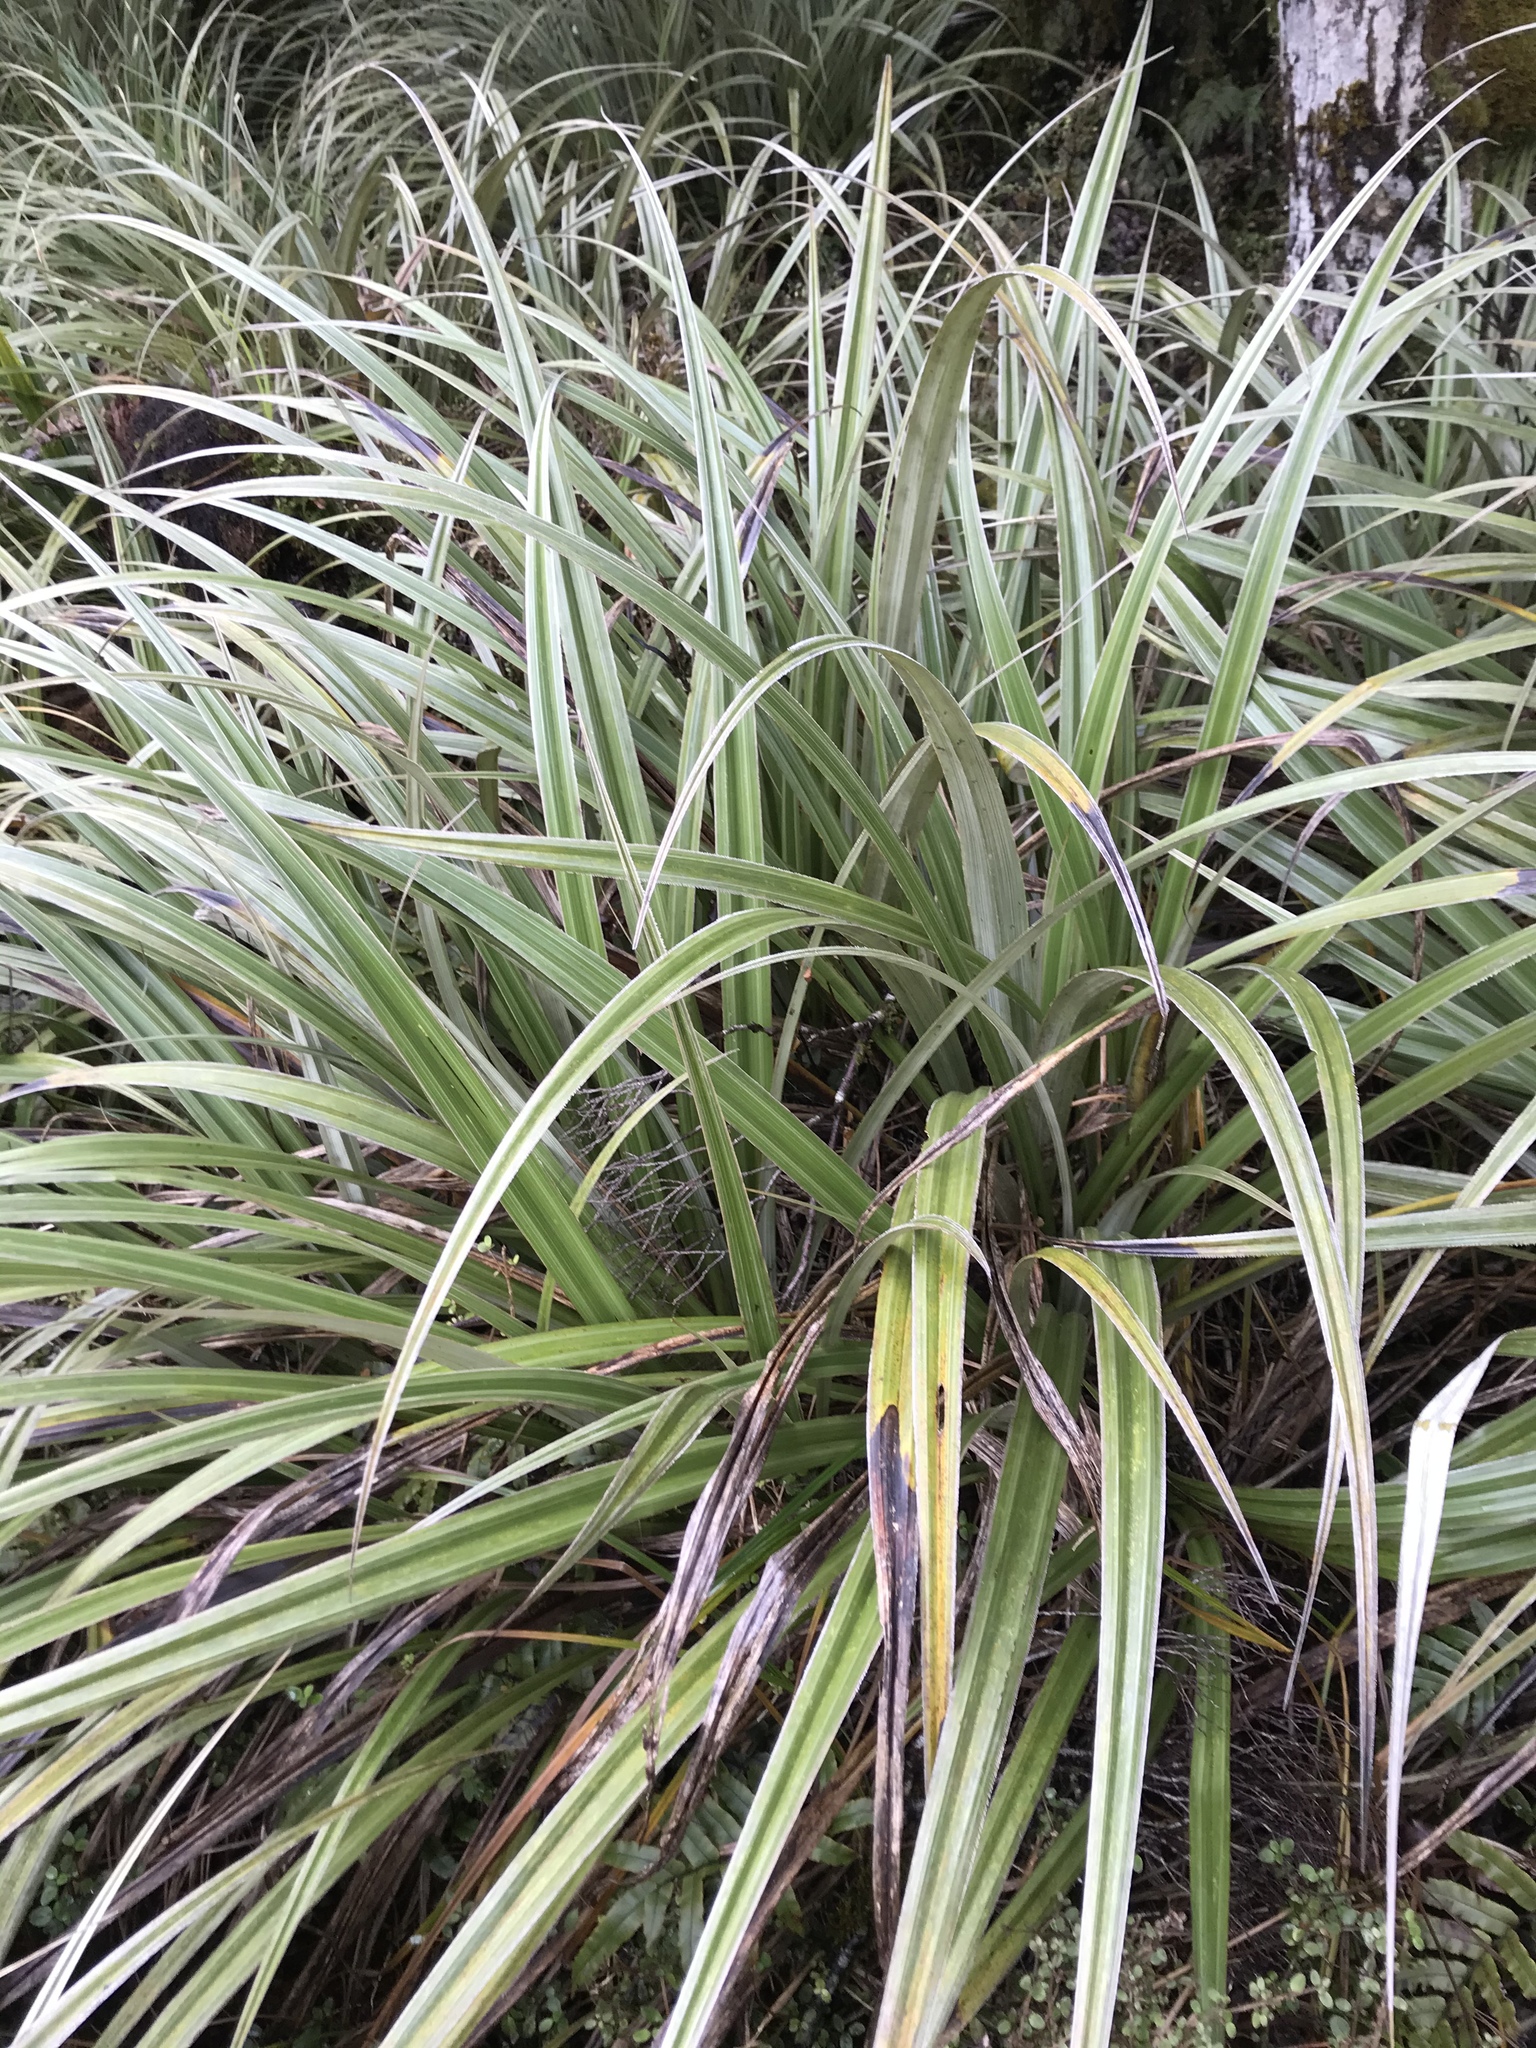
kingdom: Plantae
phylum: Tracheophyta
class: Liliopsida
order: Asparagales
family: Asteliaceae
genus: Astelia
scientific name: Astelia nervosa
